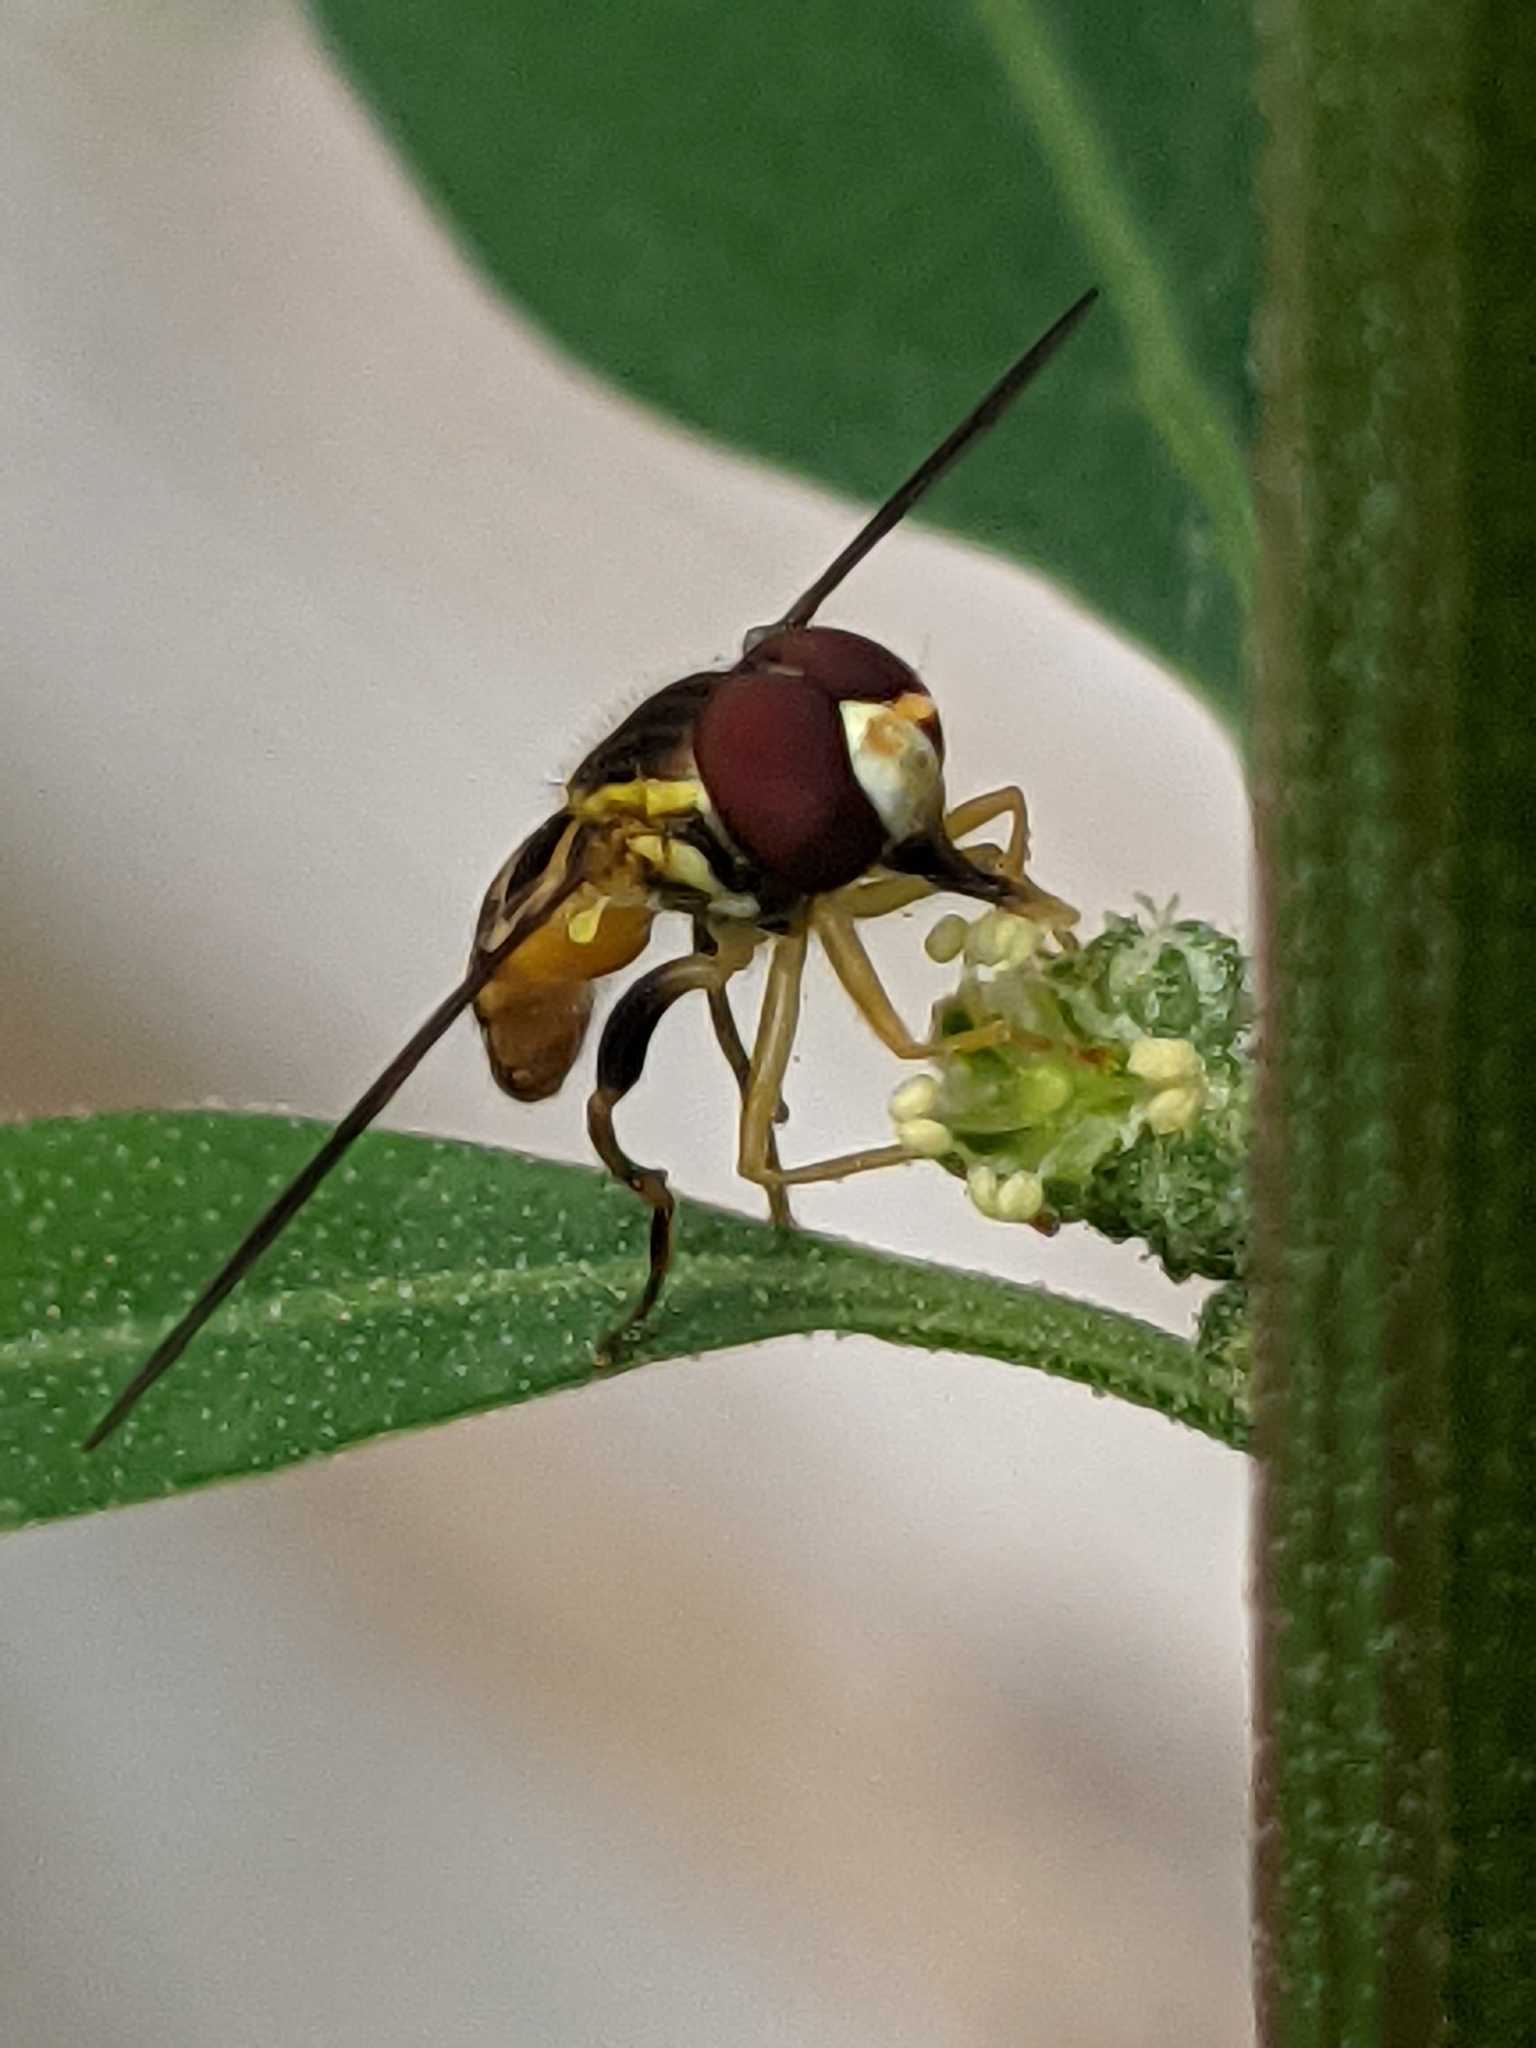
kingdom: Animalia
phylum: Arthropoda
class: Insecta
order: Diptera
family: Syrphidae
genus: Toxomerus
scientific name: Toxomerus geminatus
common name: Eastern calligrapher
